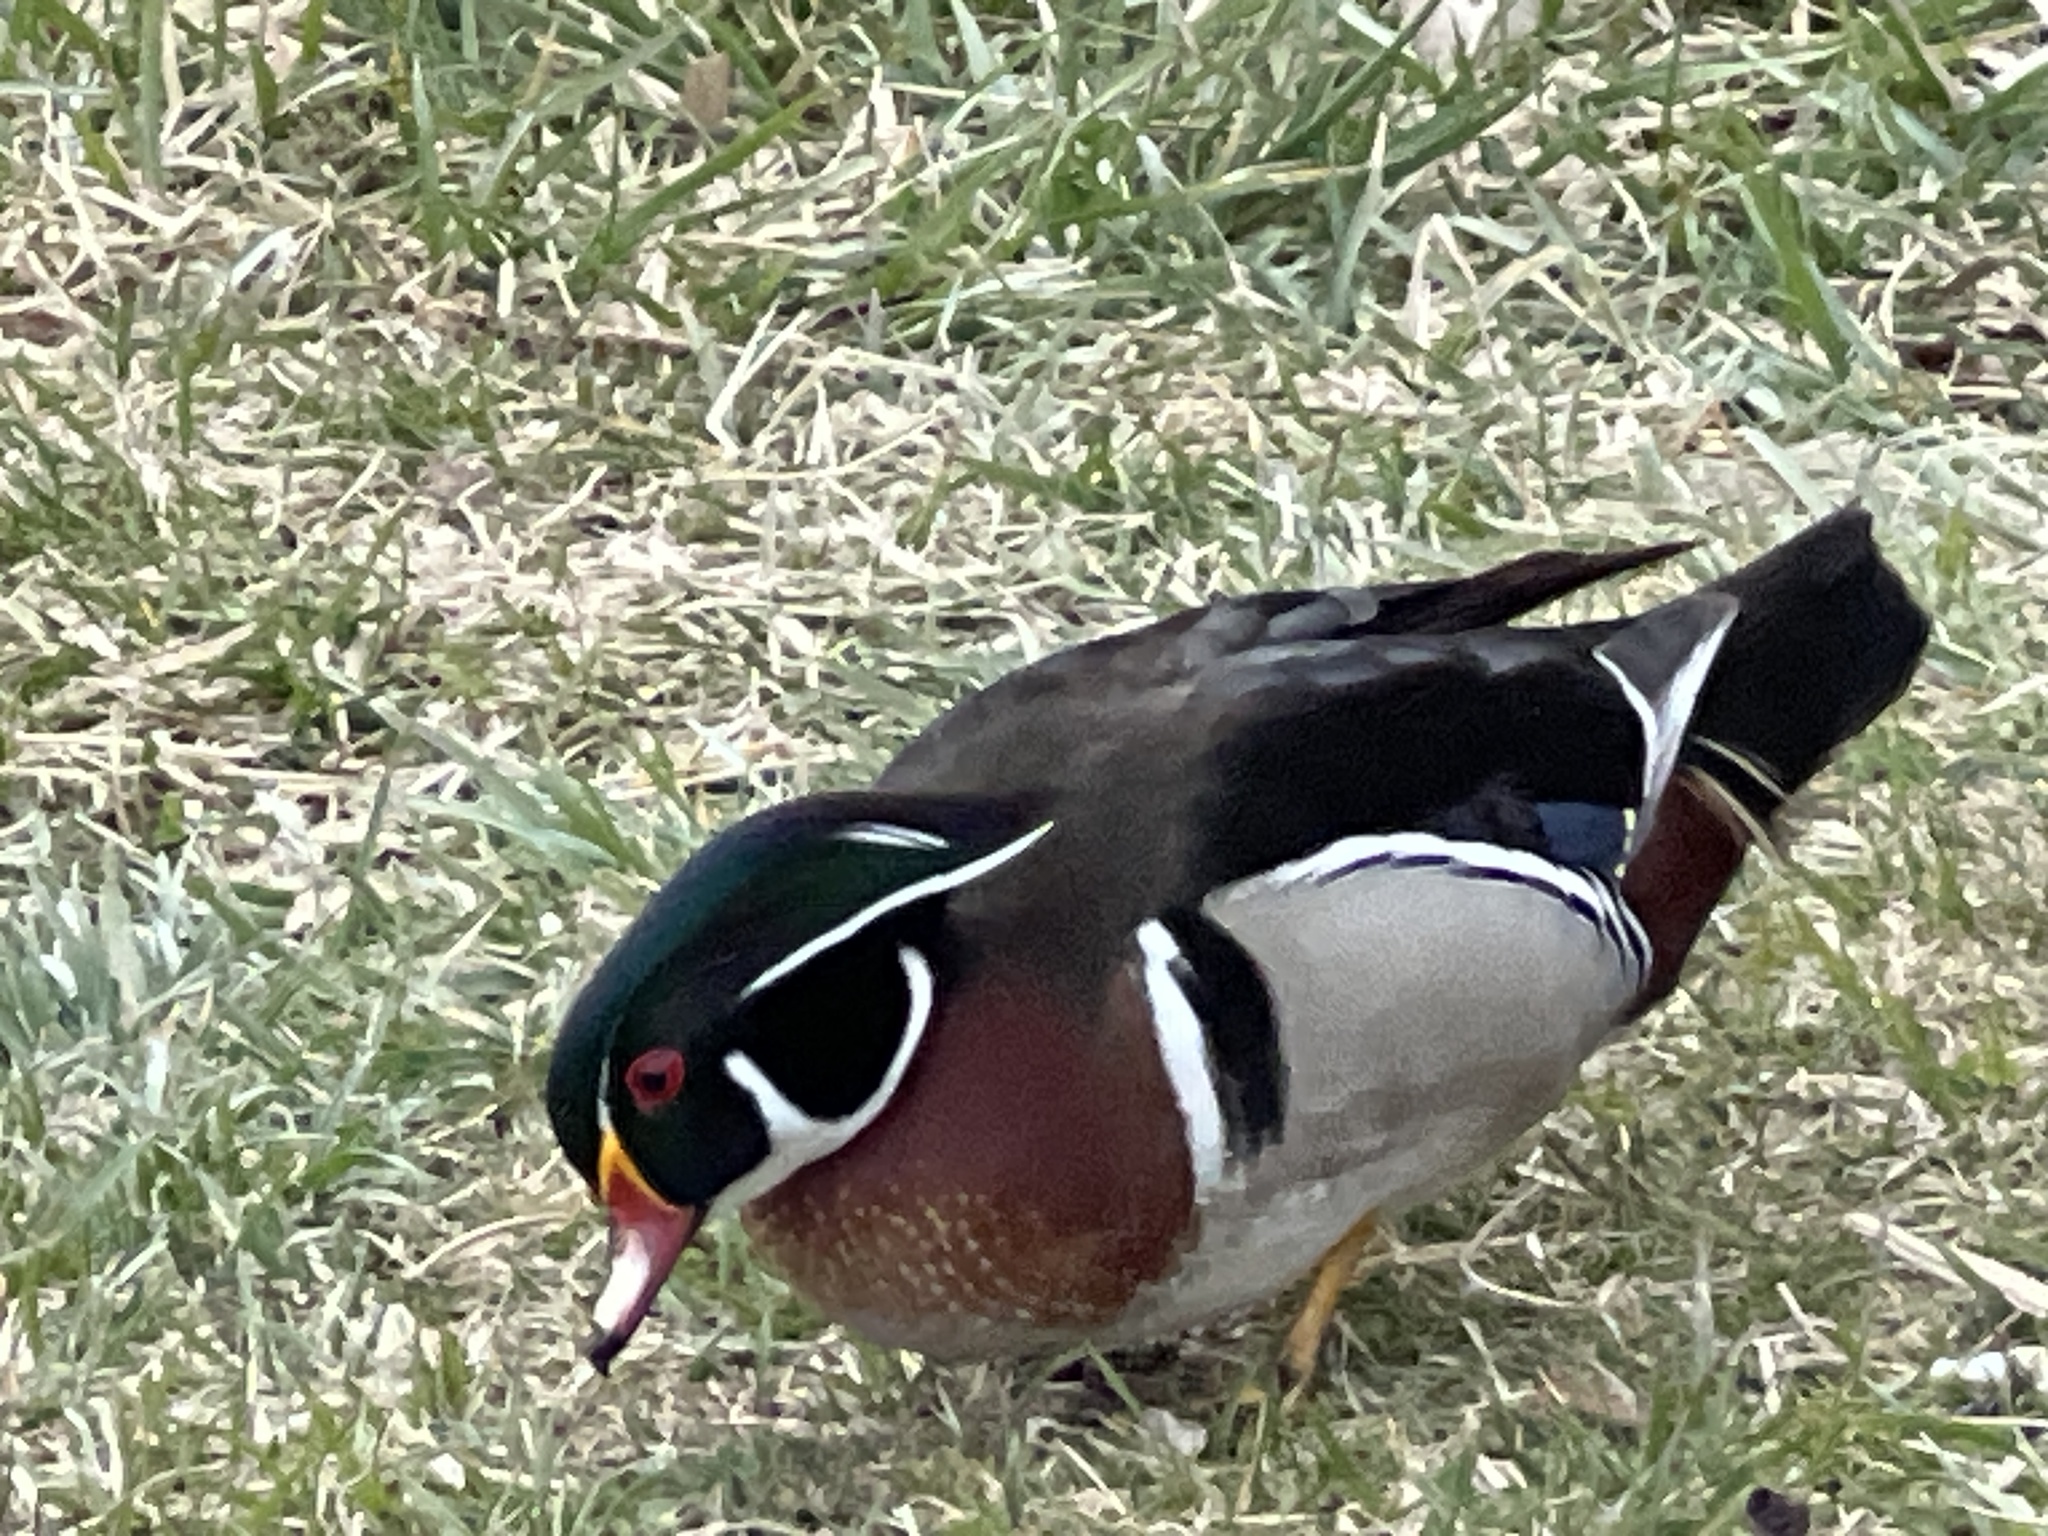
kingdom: Animalia
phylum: Chordata
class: Aves
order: Anseriformes
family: Anatidae
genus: Aix
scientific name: Aix sponsa
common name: Wood duck
